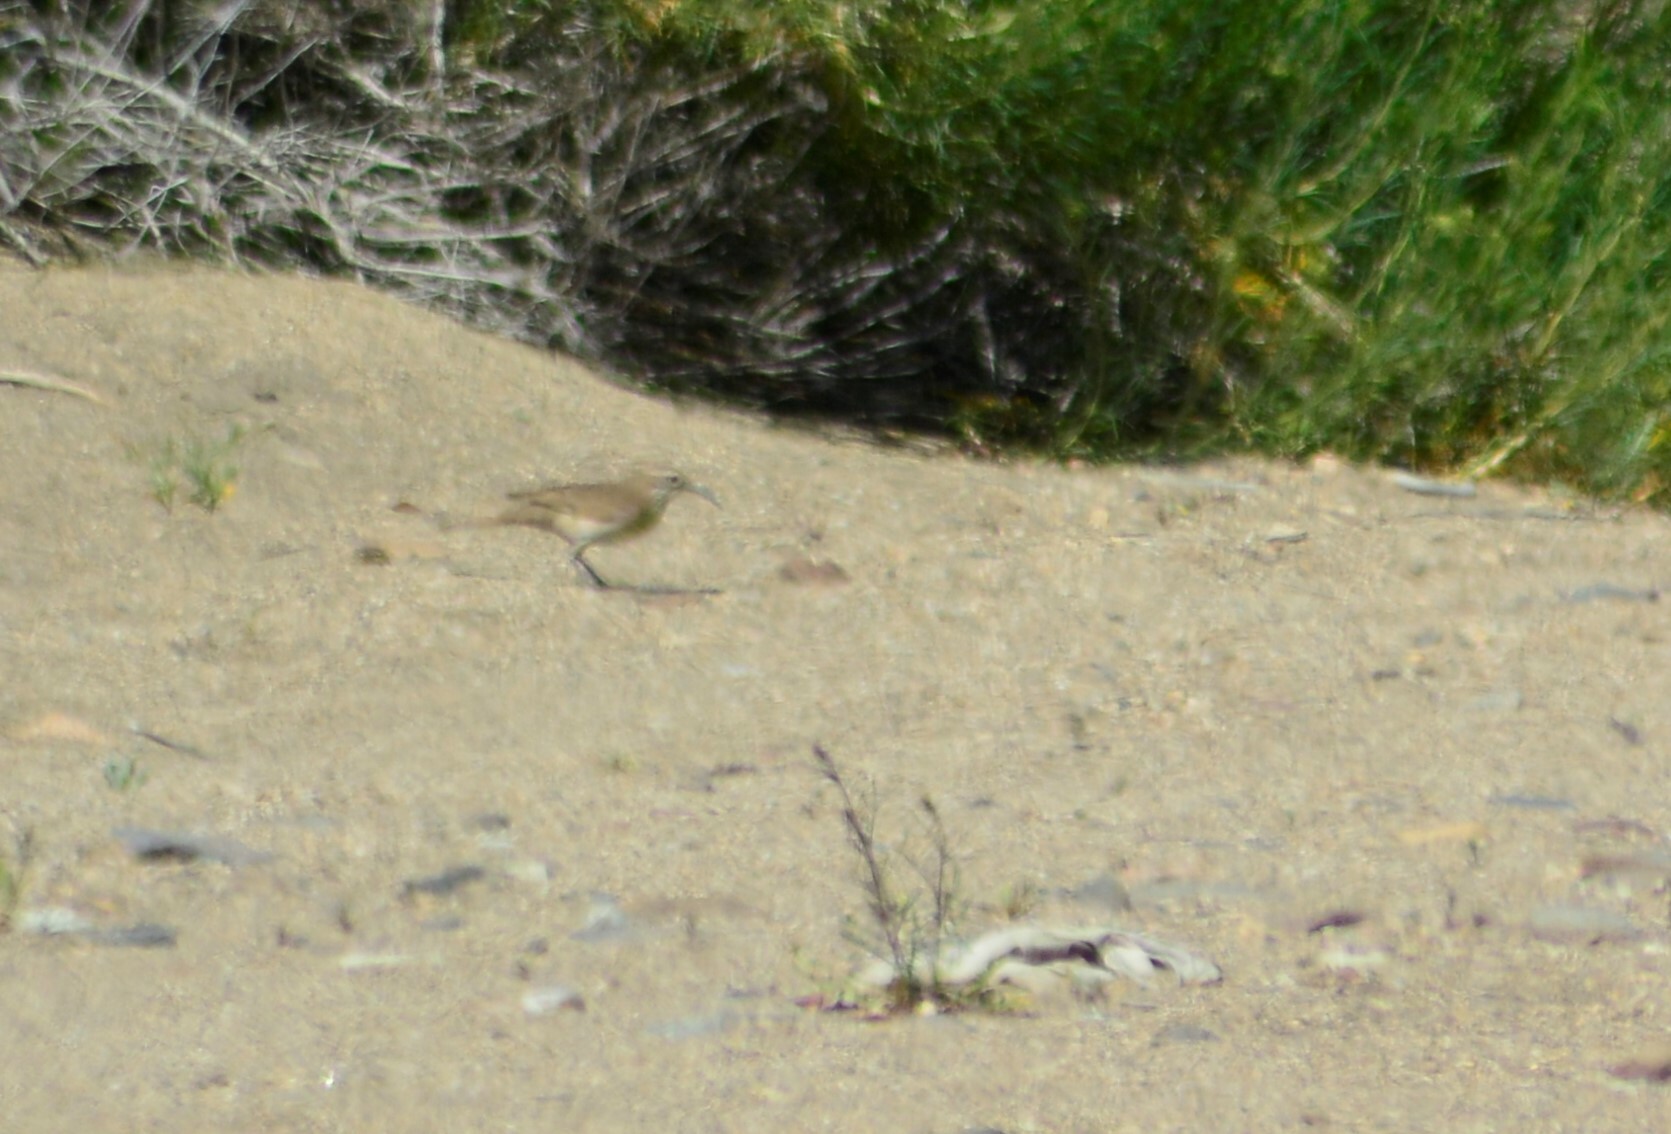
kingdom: Animalia
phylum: Chordata
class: Aves
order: Passeriformes
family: Furnariidae
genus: Upucerthia
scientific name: Upucerthia dumetaria
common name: Scale-throated earthcreeper
